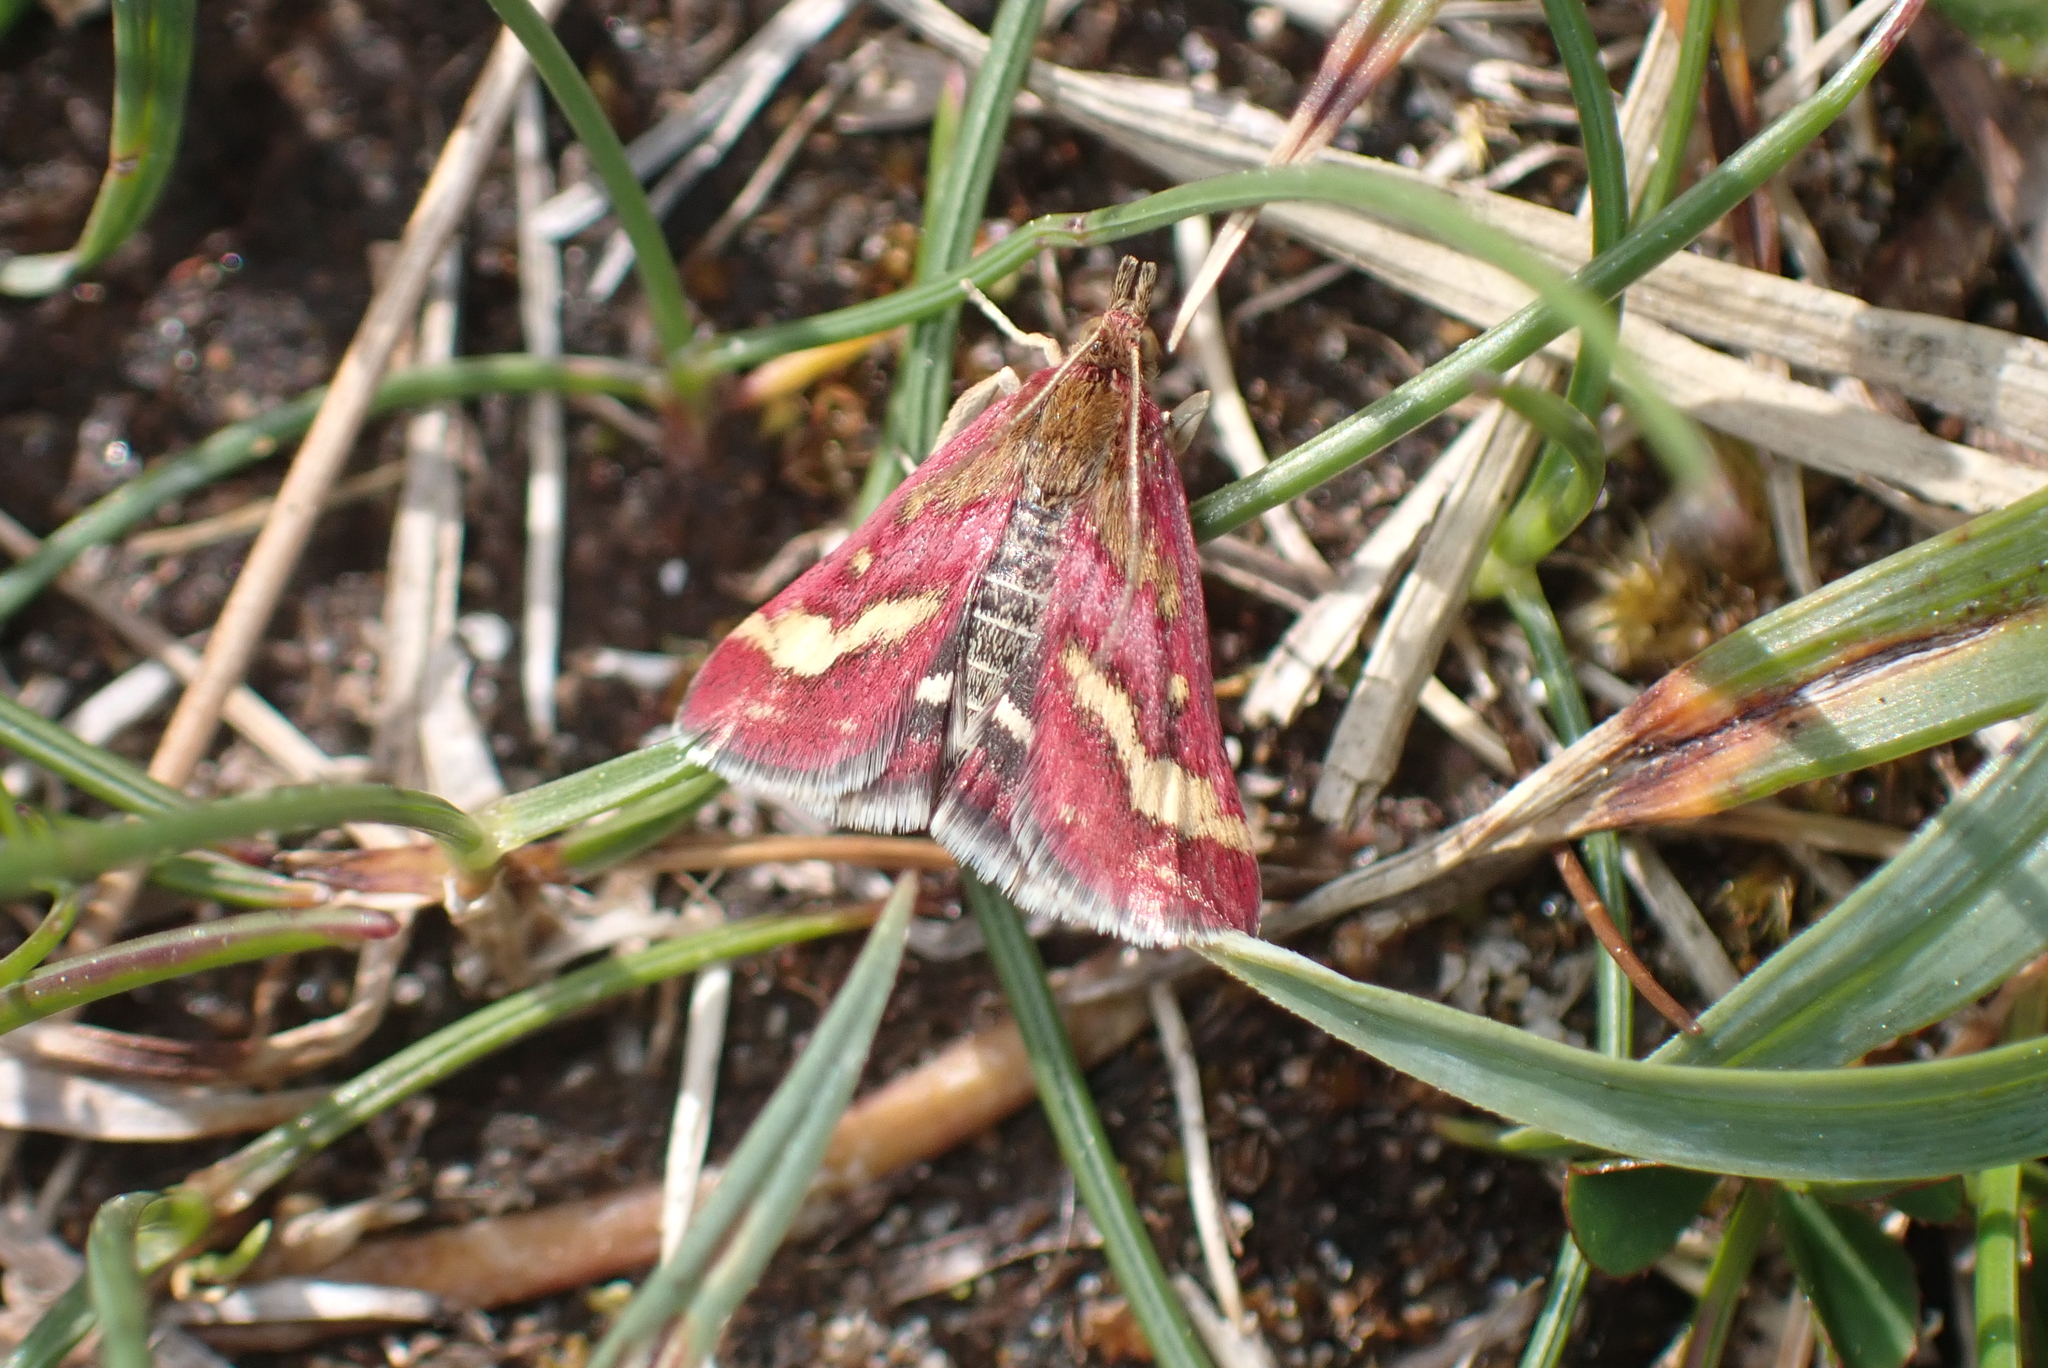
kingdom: Animalia
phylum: Arthropoda
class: Insecta
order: Lepidoptera
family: Crambidae
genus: Pyrausta
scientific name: Pyrausta ostrinalis
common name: Scarce purple & gold
